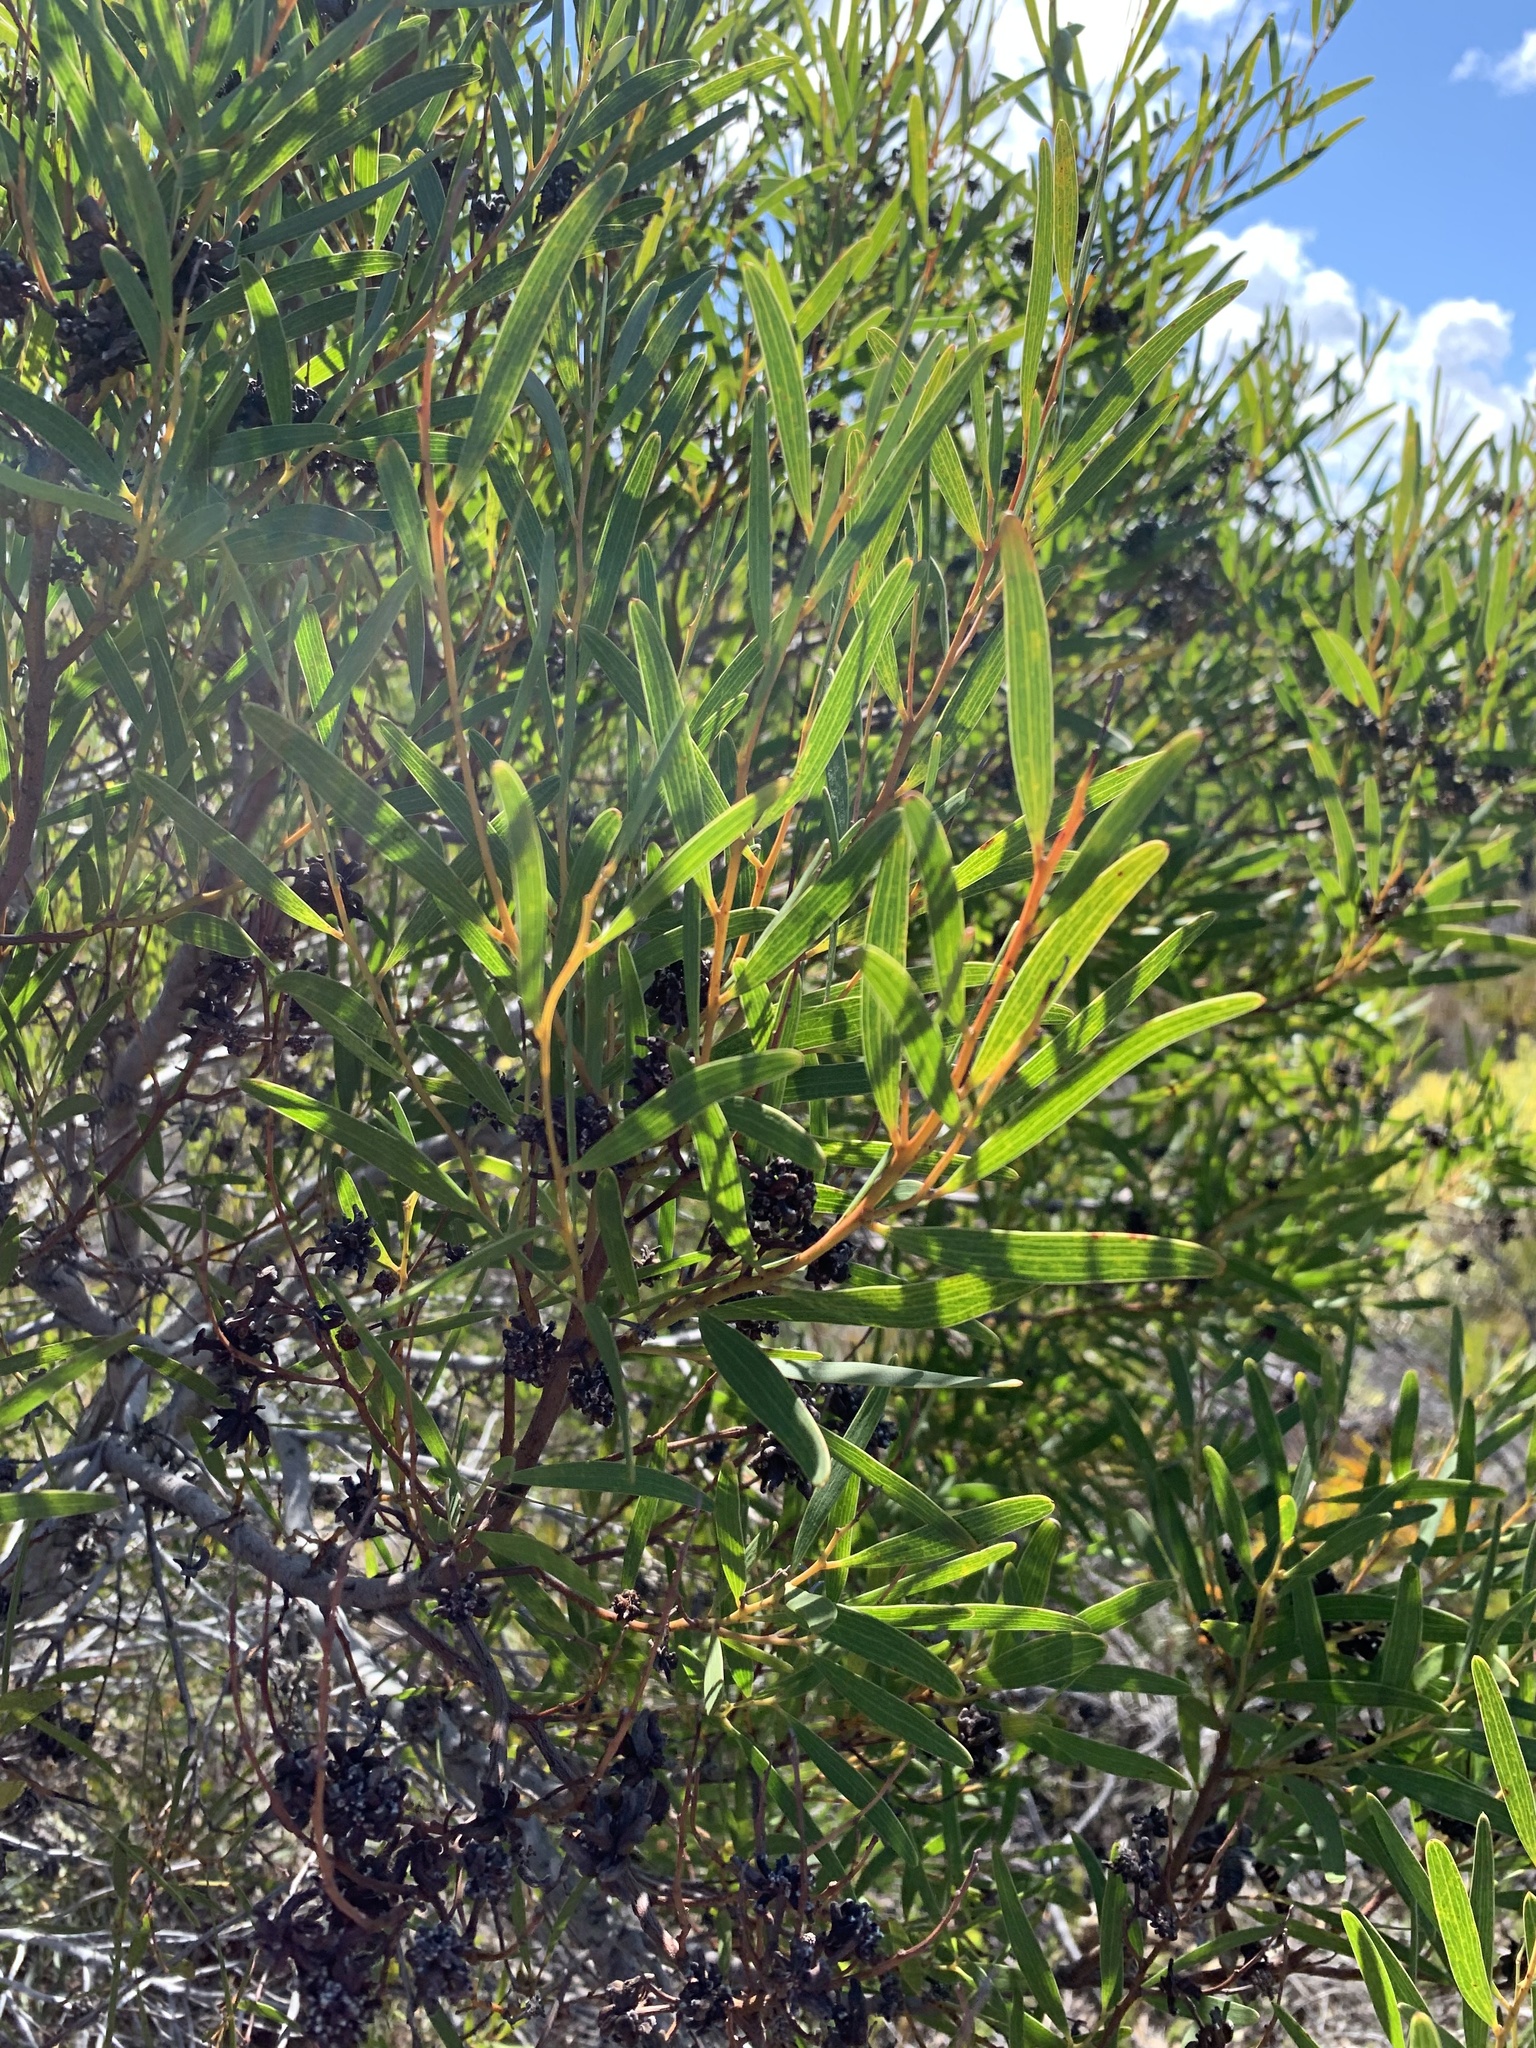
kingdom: Plantae
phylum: Tracheophyta
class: Magnoliopsida
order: Fabales
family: Fabaceae
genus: Acacia
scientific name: Acacia cyclops
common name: Coastal wattle
